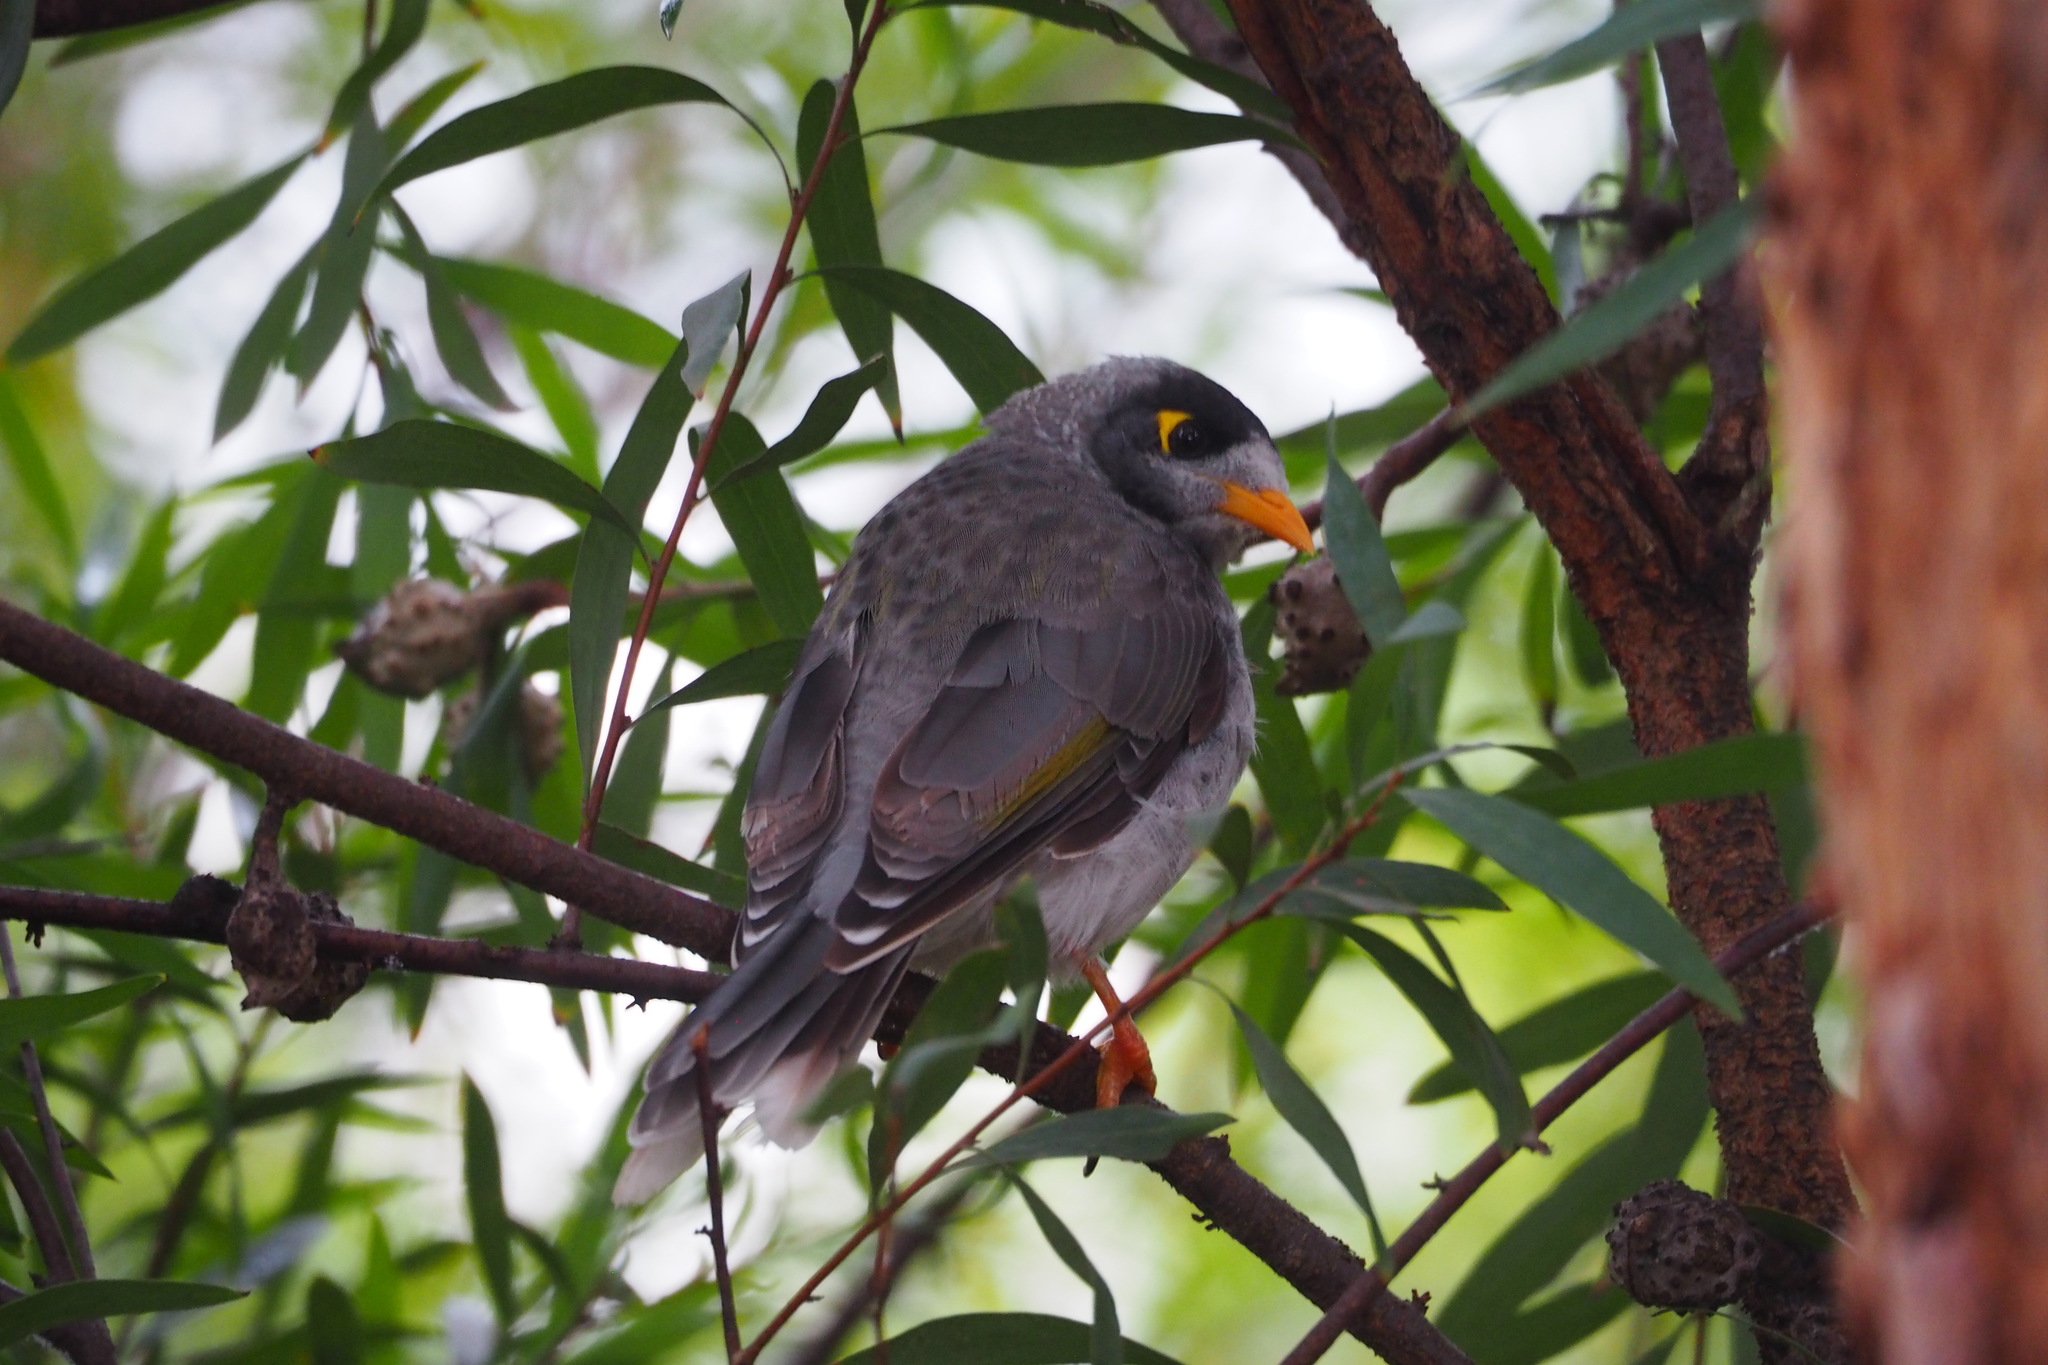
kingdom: Animalia
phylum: Chordata
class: Aves
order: Passeriformes
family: Meliphagidae
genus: Manorina
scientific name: Manorina melanocephala
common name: Noisy miner
